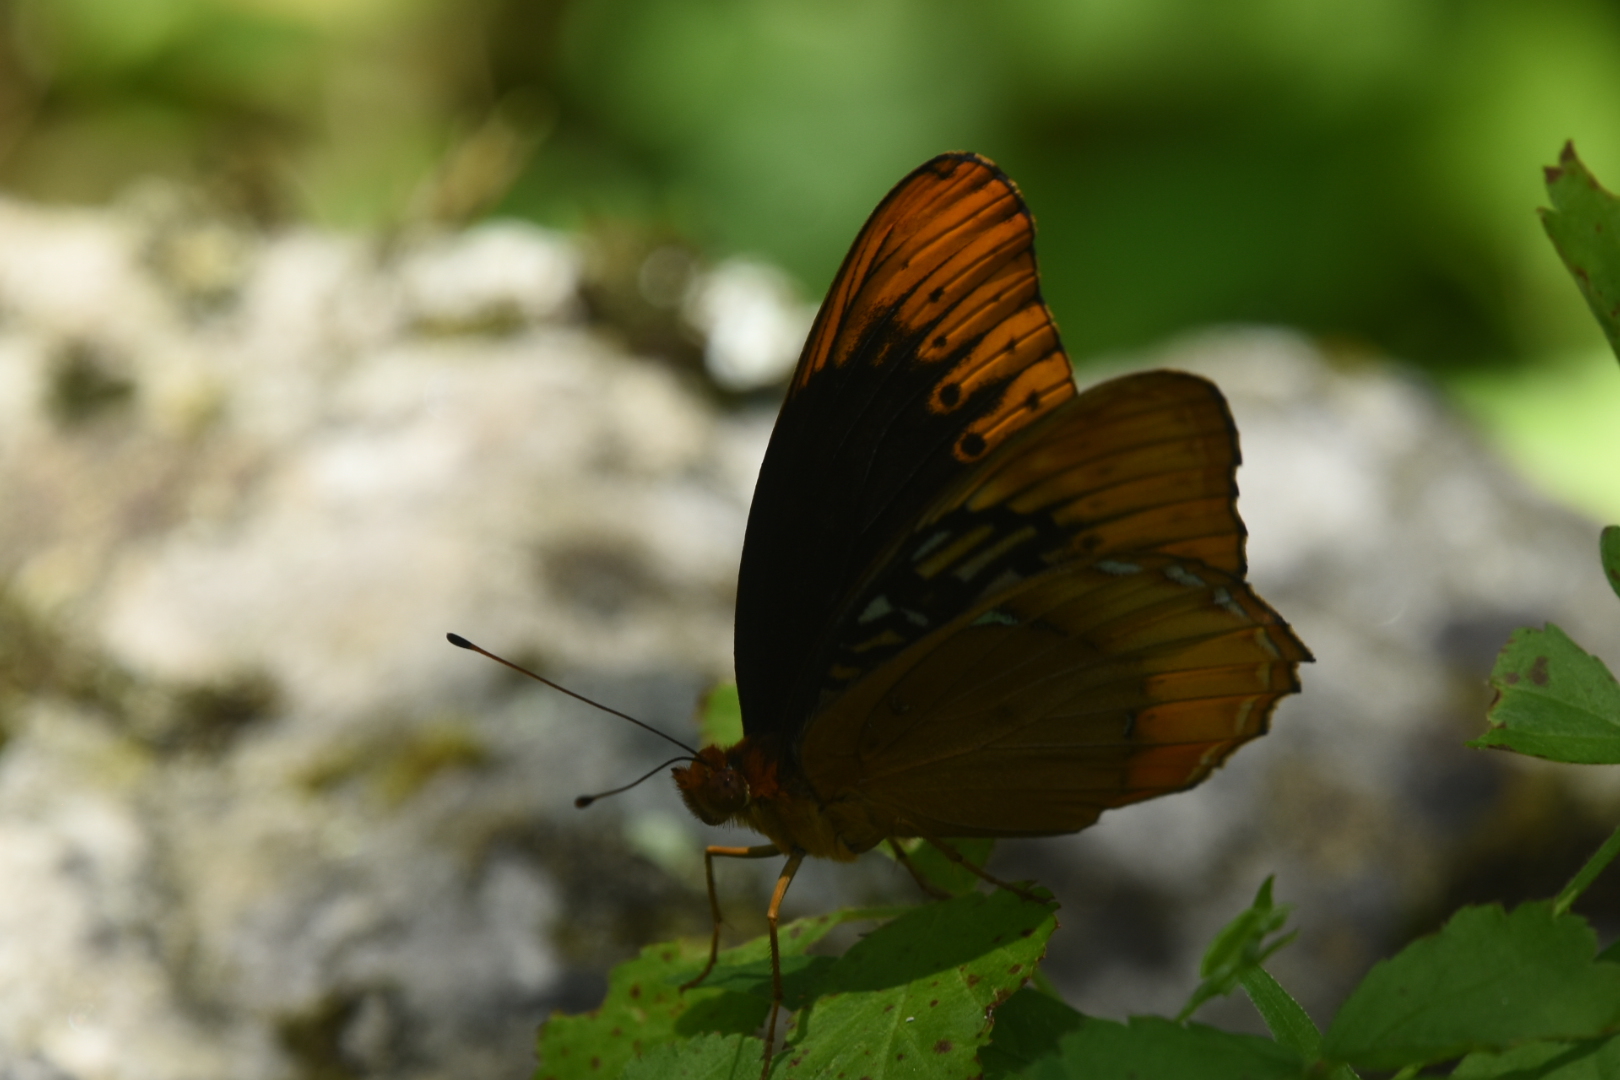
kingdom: Animalia
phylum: Arthropoda
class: Insecta
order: Lepidoptera
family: Nymphalidae
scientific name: Nymphalidae
